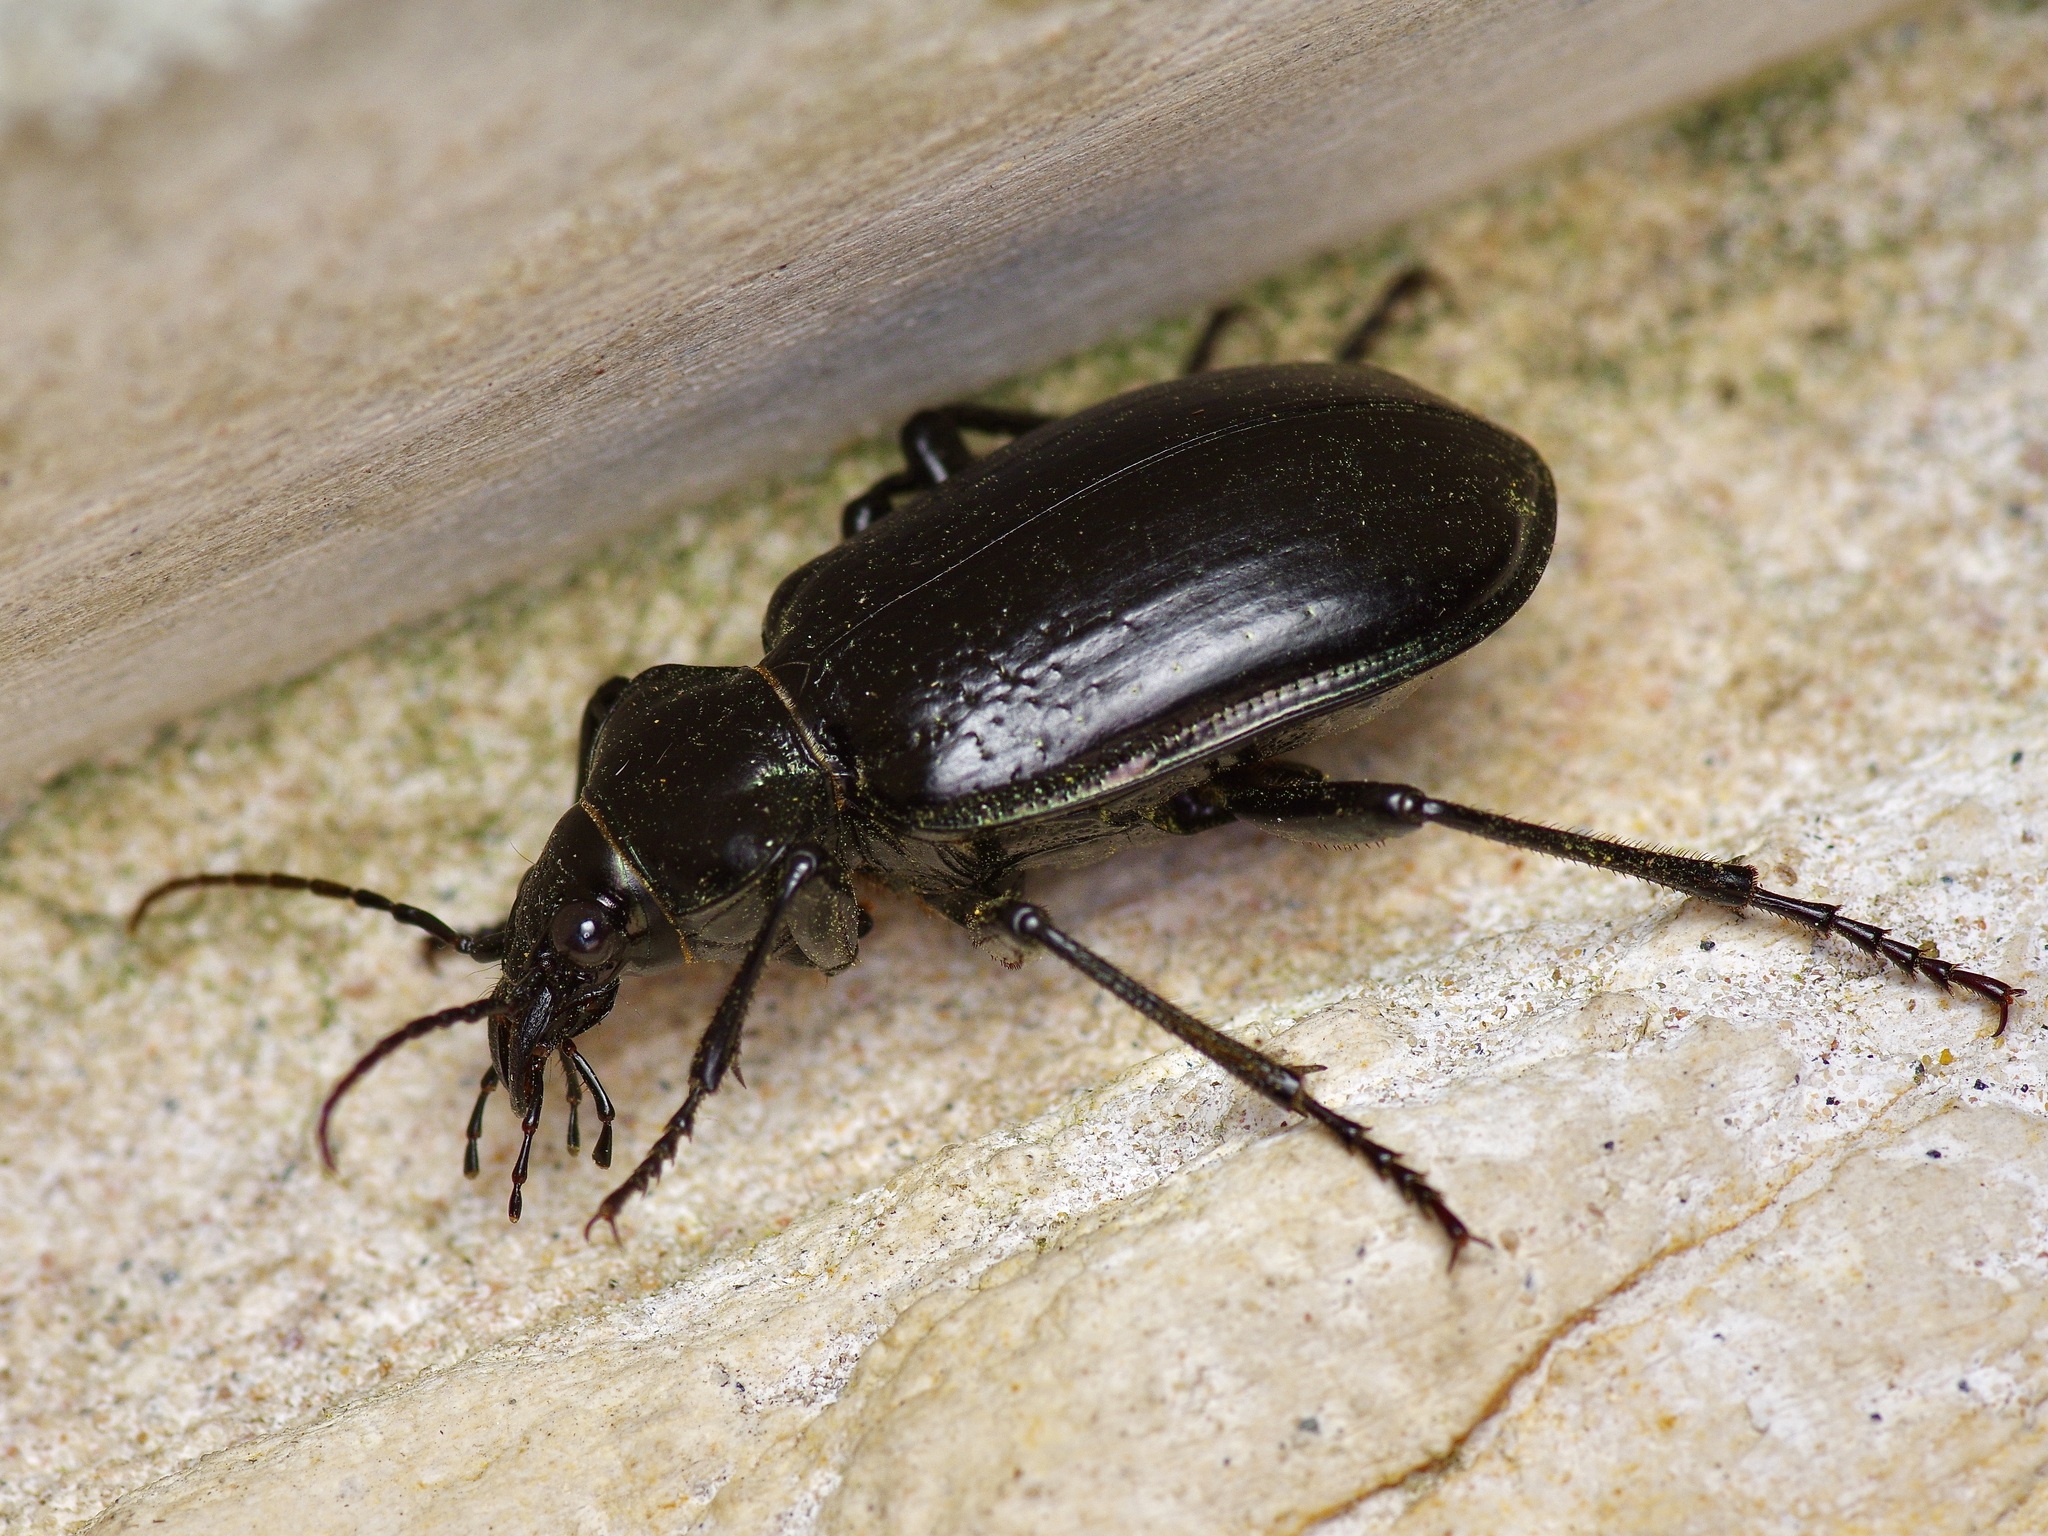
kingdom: Animalia
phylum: Arthropoda
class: Insecta
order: Coleoptera
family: Carabidae
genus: Calosoma
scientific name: Calosoma marginale
